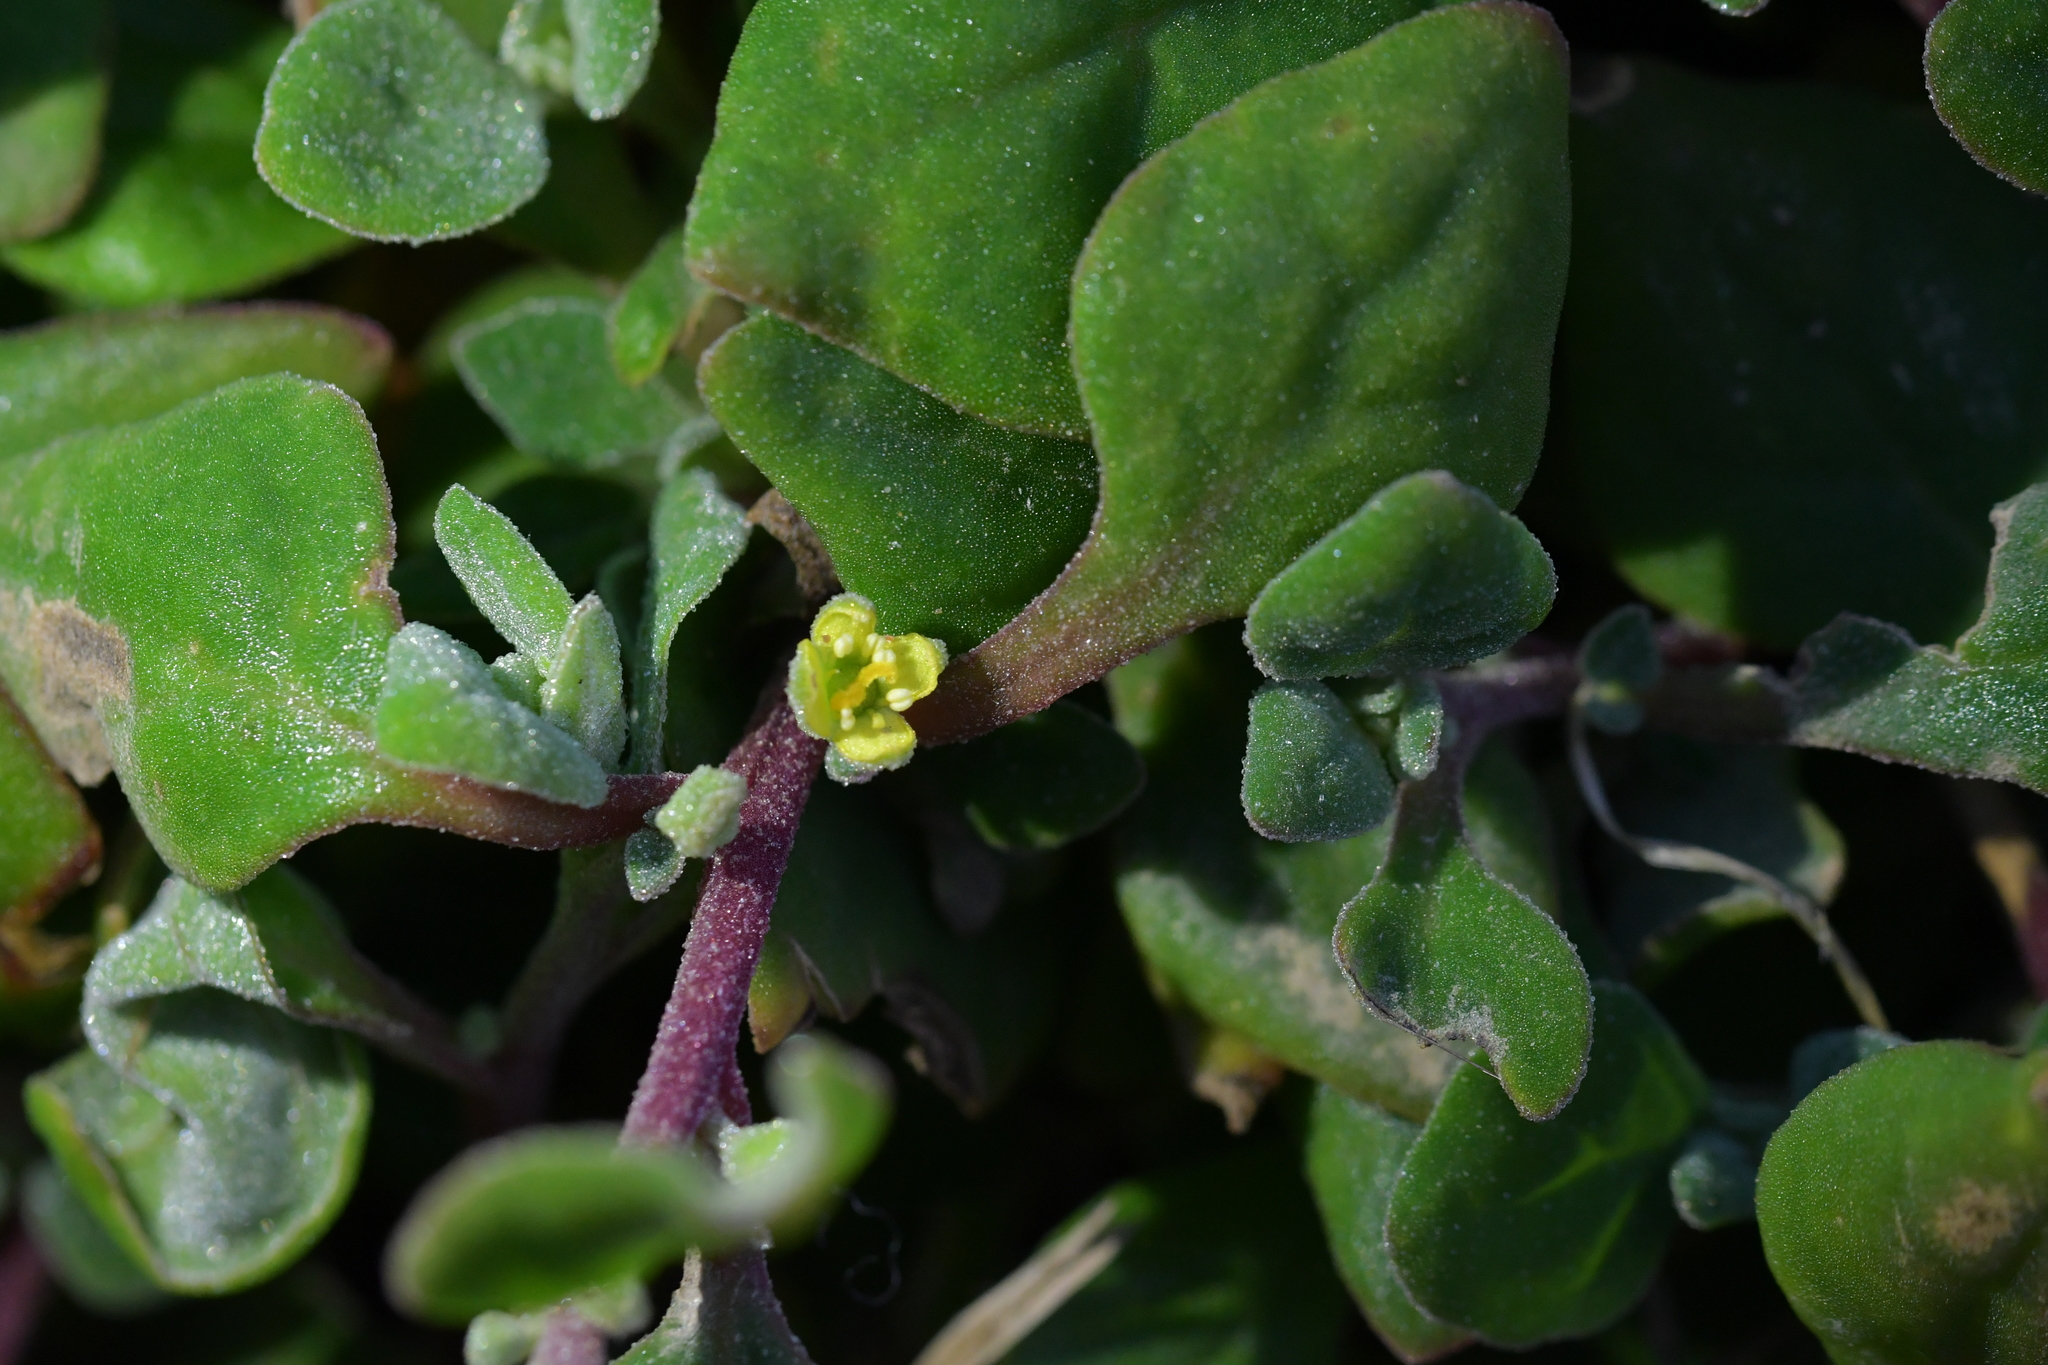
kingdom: Plantae
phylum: Tracheophyta
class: Magnoliopsida
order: Caryophyllales
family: Aizoaceae
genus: Tetragonia
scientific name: Tetragonia implexicoma
